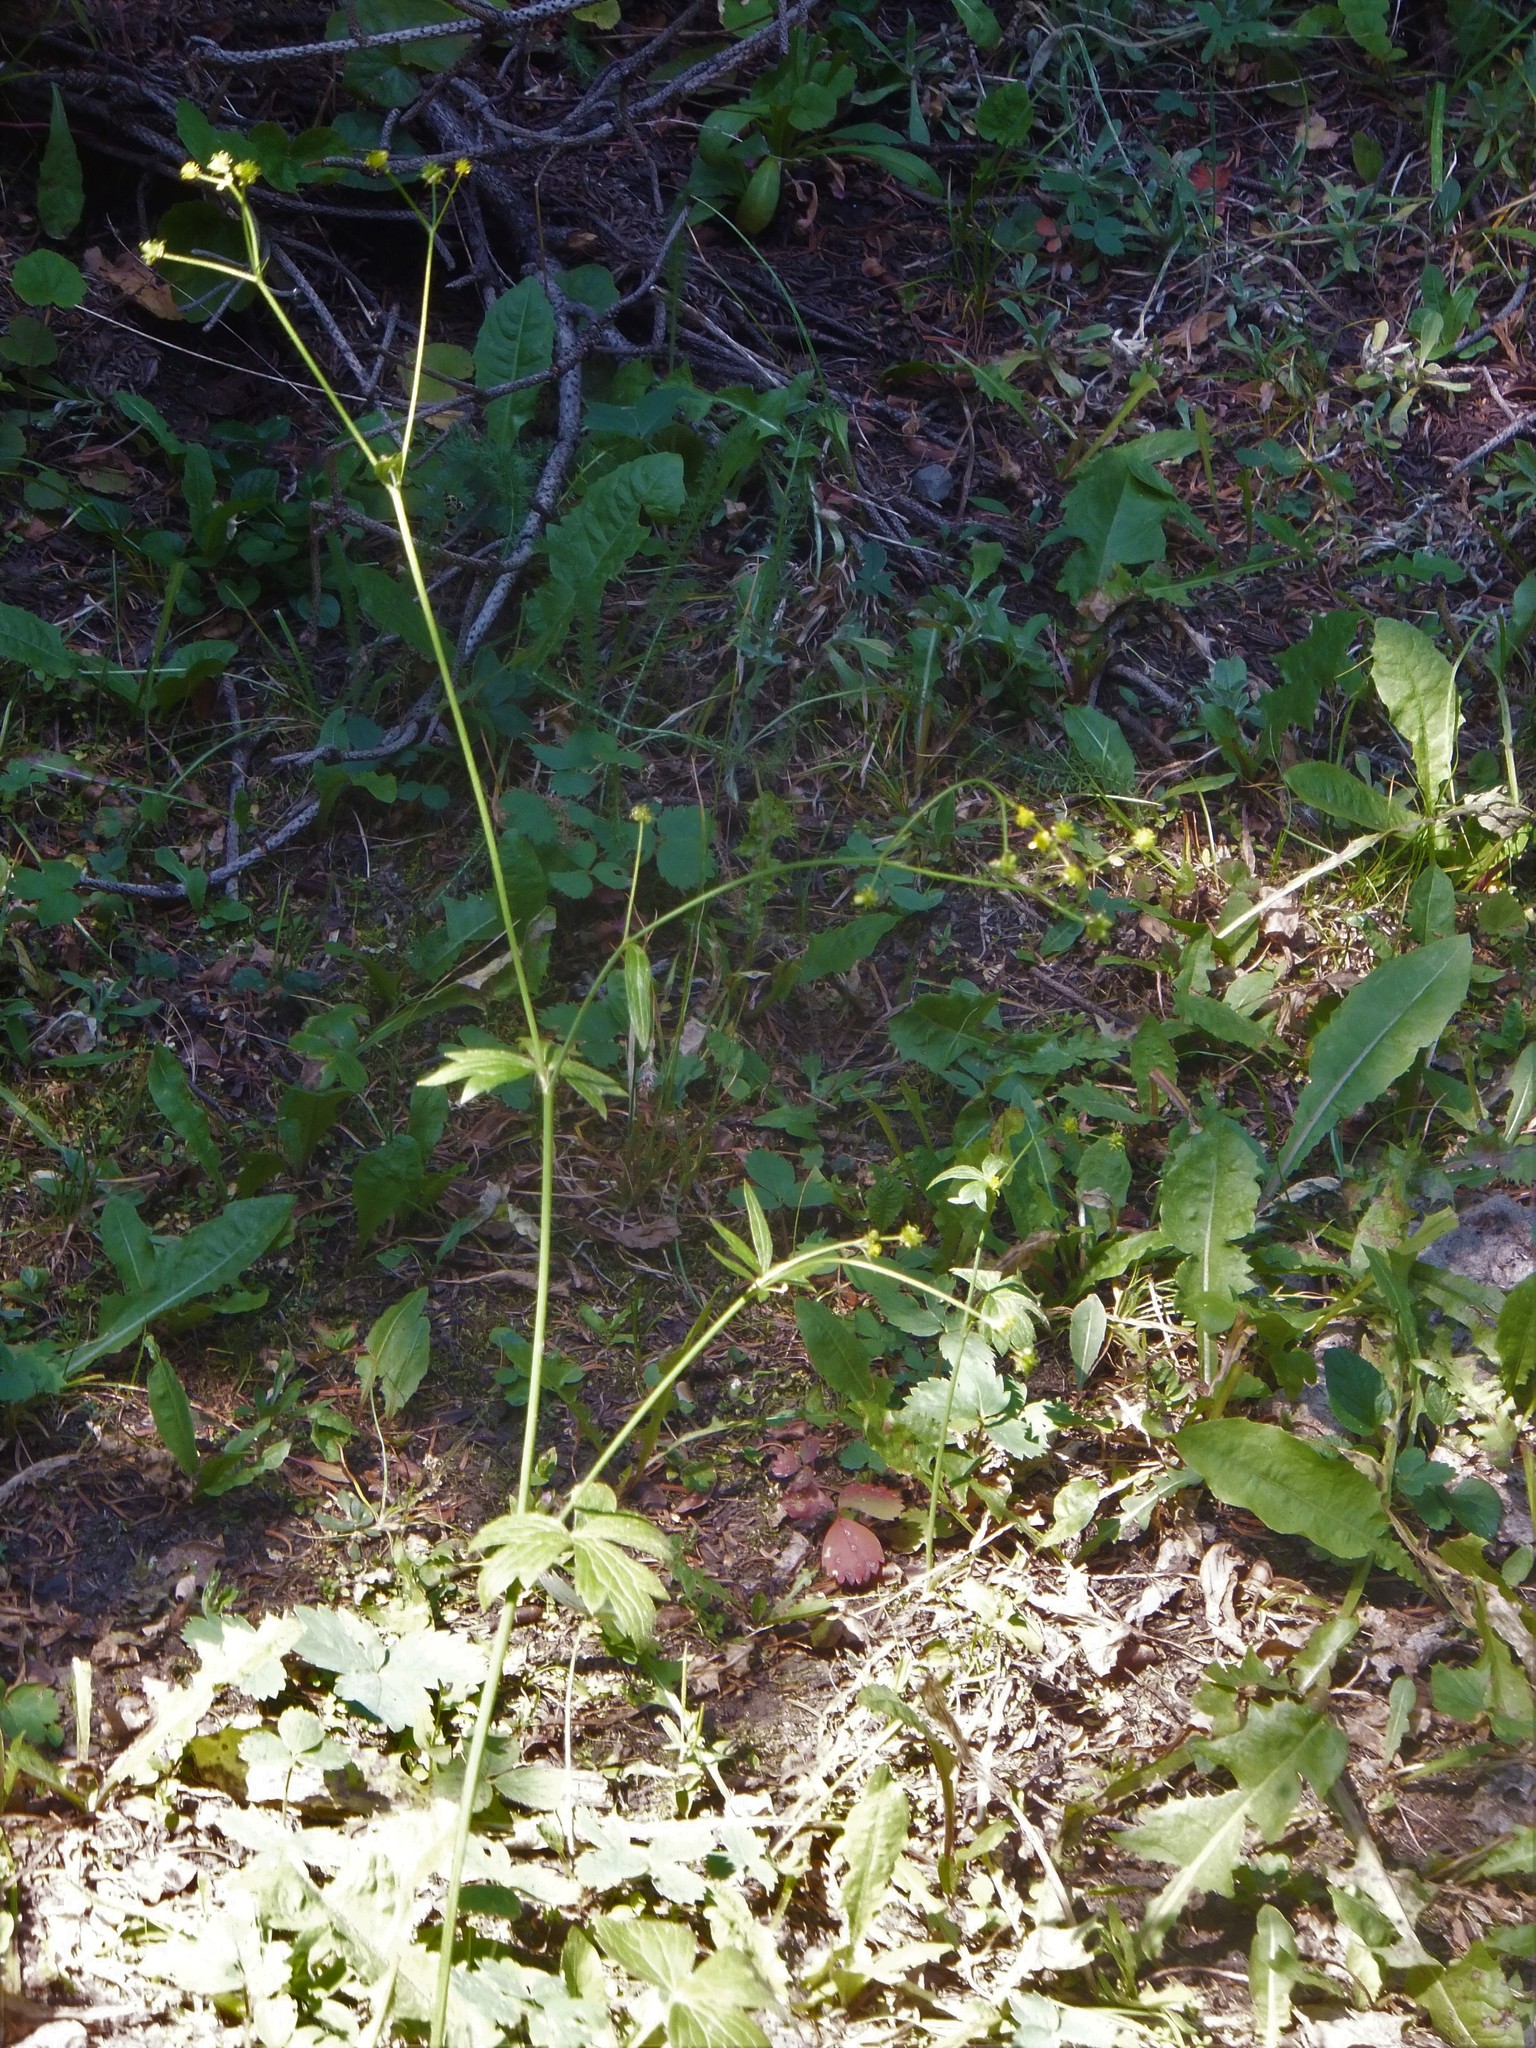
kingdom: Plantae
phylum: Tracheophyta
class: Magnoliopsida
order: Ranunculales
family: Ranunculaceae
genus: Ranunculus
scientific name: Ranunculus uncinatus
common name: Little buttercup
